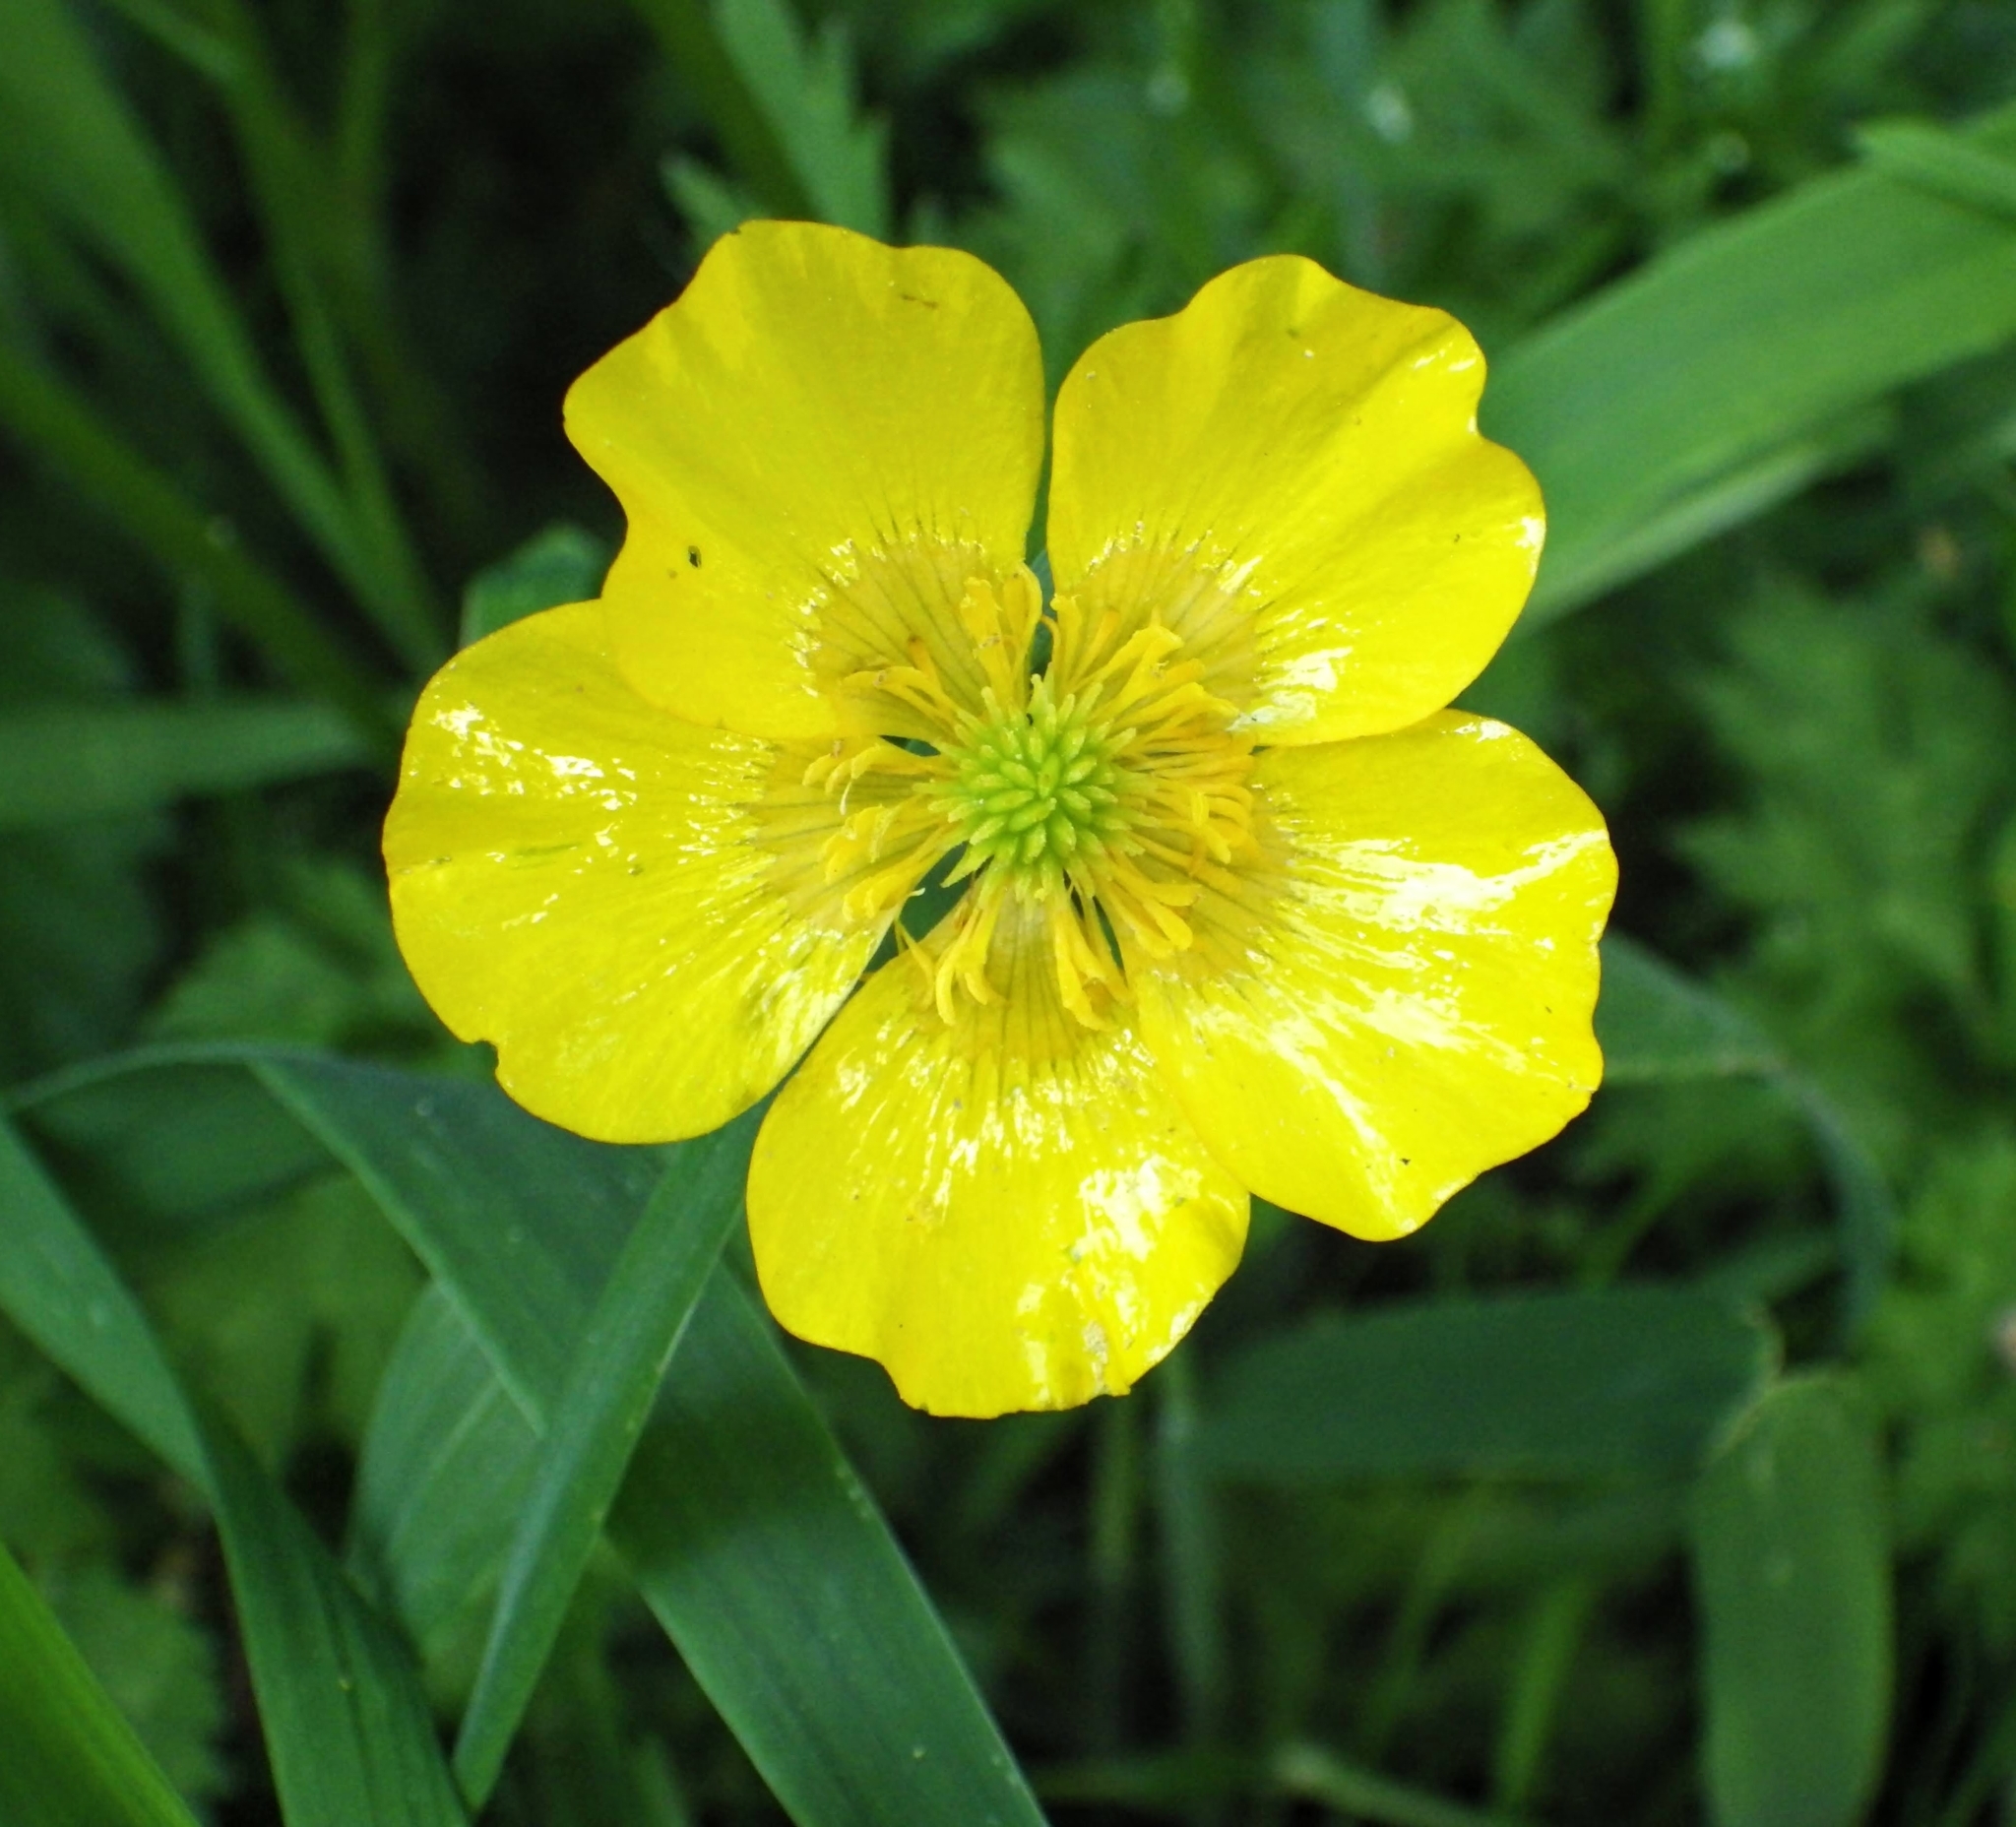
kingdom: Plantae
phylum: Tracheophyta
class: Magnoliopsida
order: Ranunculales
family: Ranunculaceae
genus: Ranunculus
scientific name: Ranunculus repens
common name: Creeping buttercup
